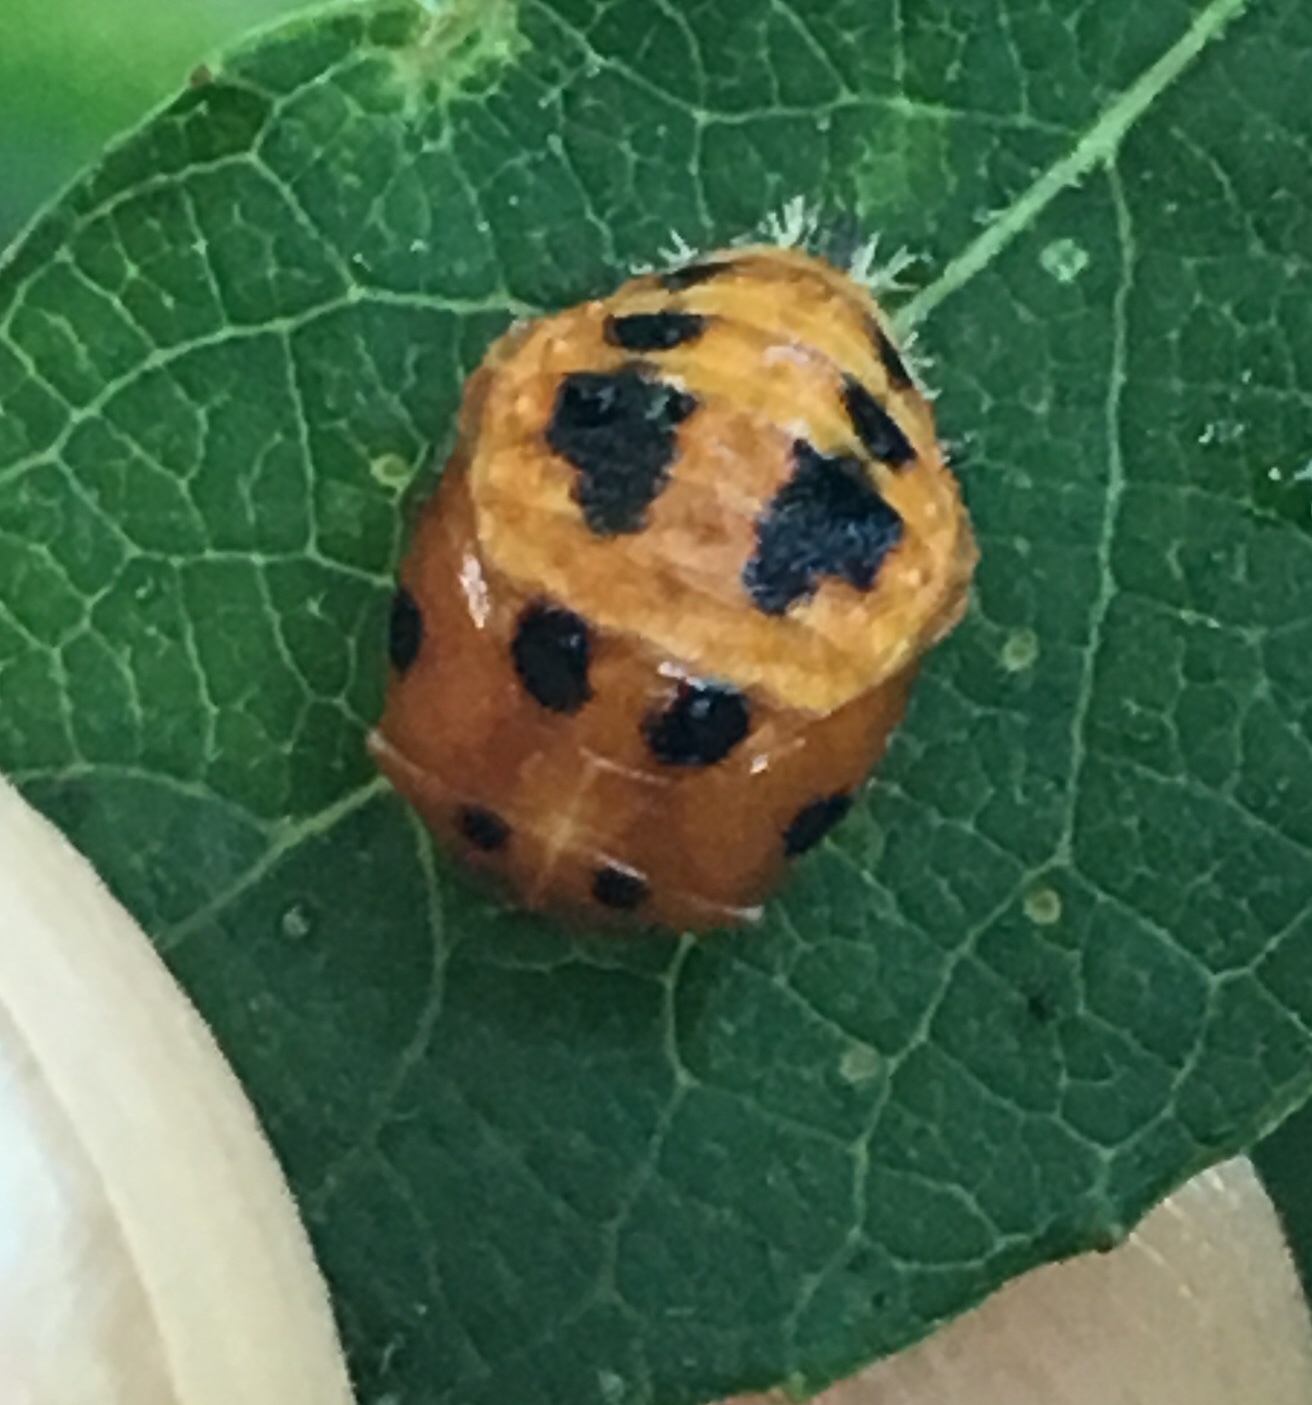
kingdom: Animalia
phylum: Arthropoda
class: Insecta
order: Coleoptera
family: Coccinellidae
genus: Harmonia
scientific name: Harmonia axyridis
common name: Harlequin ladybird
